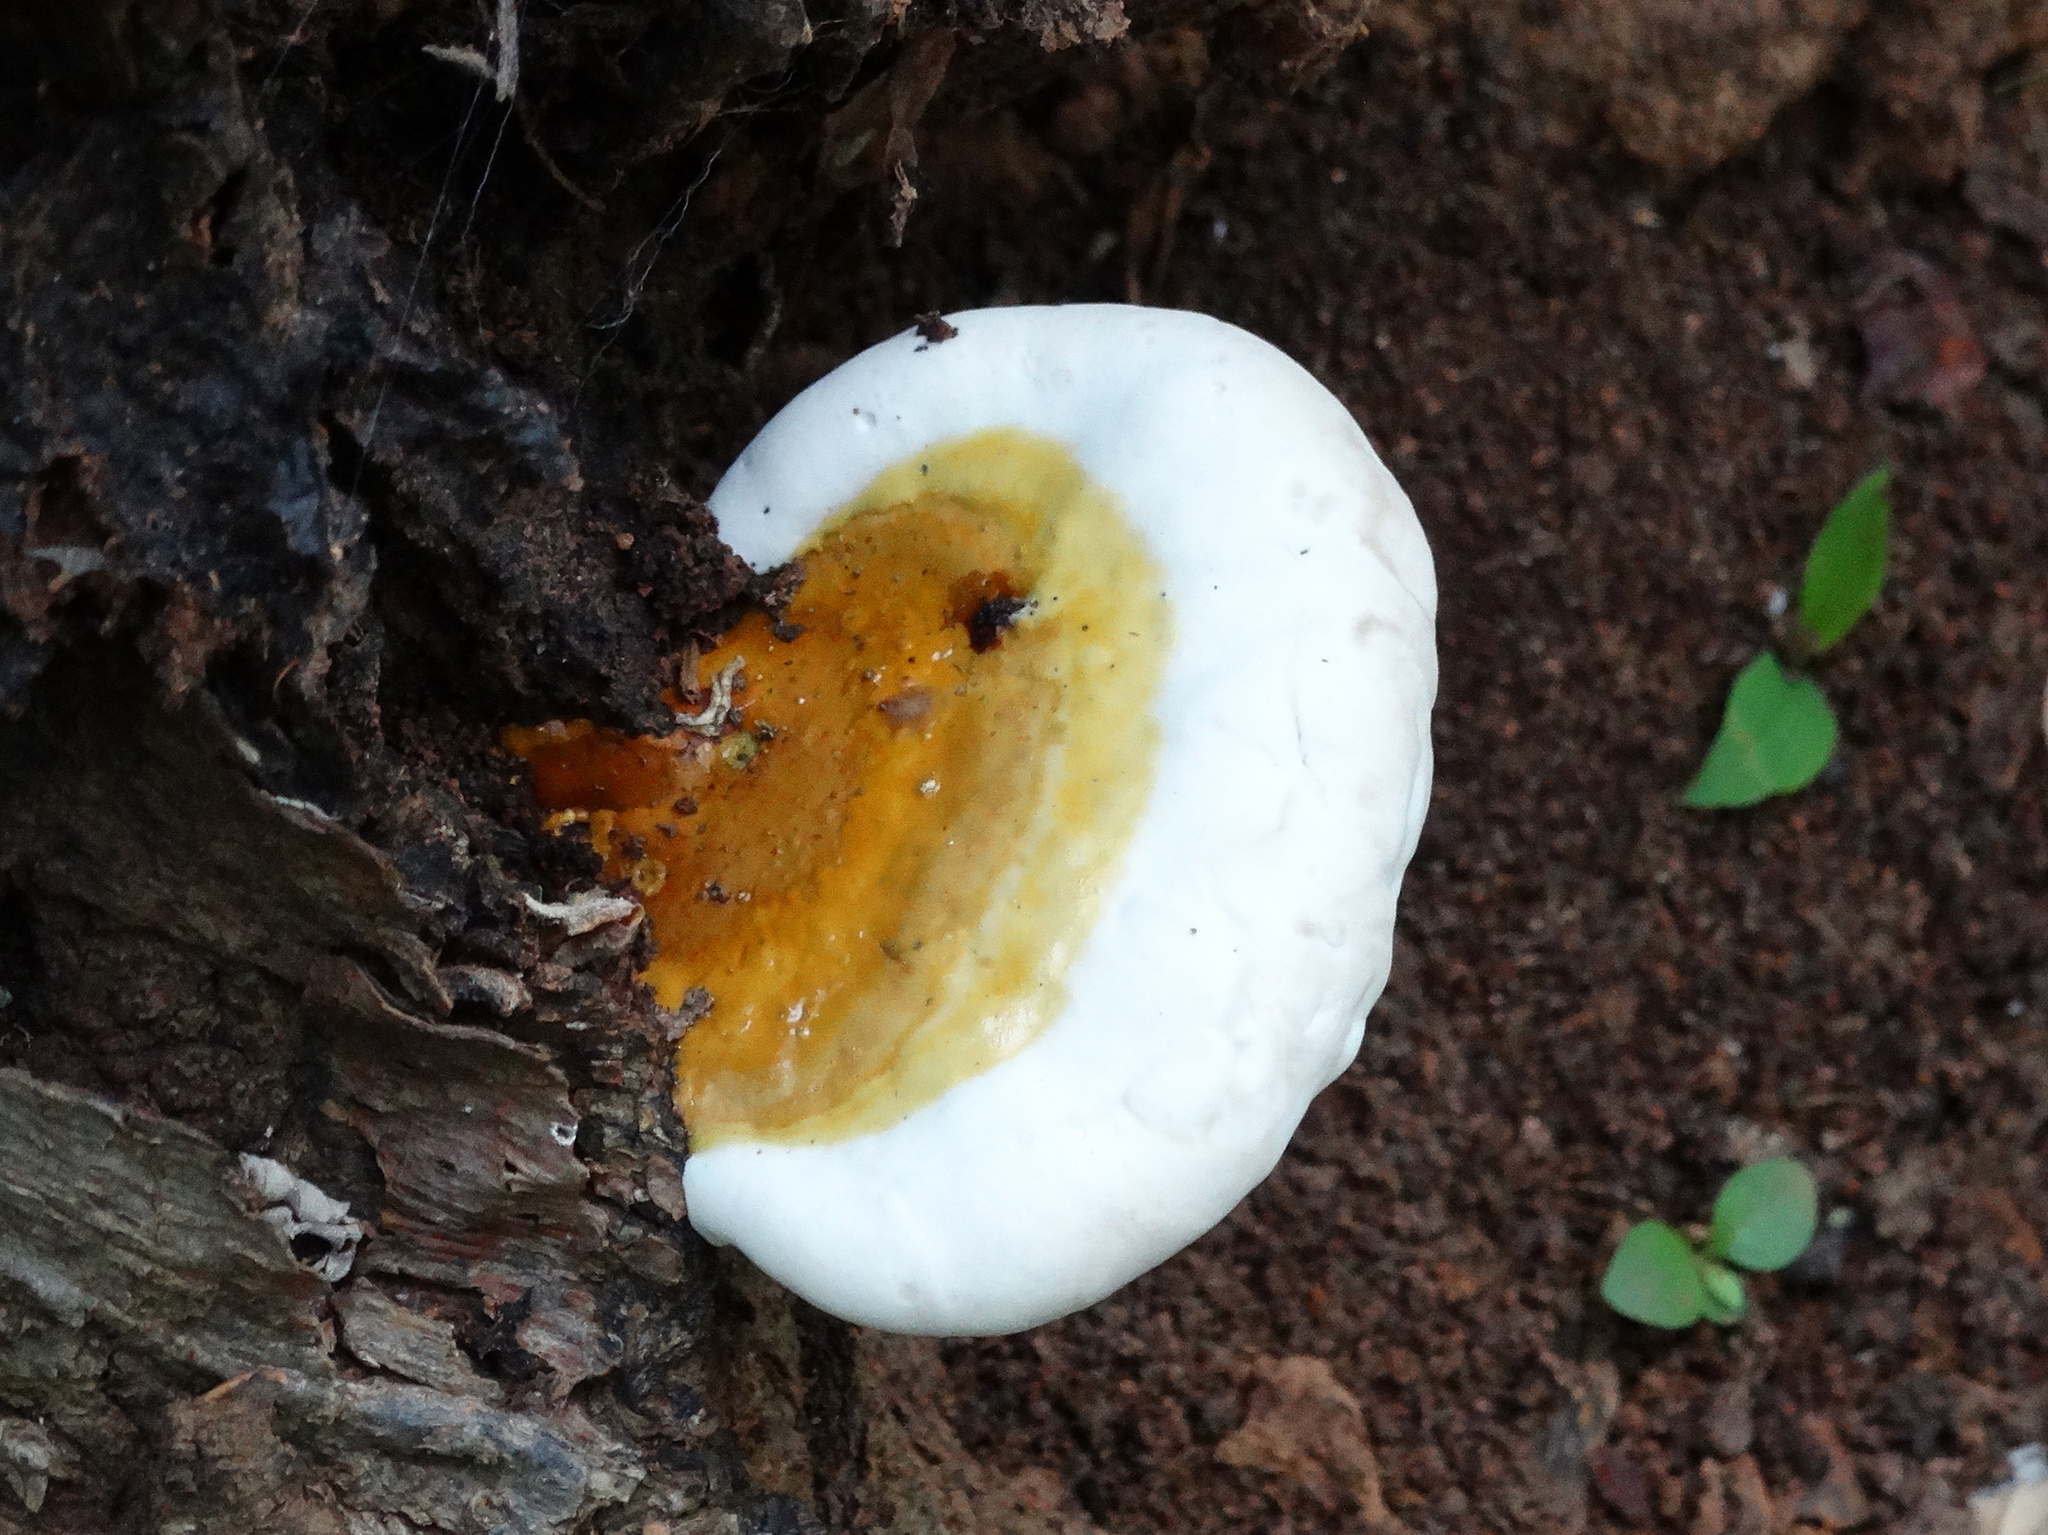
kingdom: Fungi
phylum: Basidiomycota
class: Agaricomycetes
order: Polyporales
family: Polyporaceae
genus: Ganoderma
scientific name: Ganoderma curtisii
